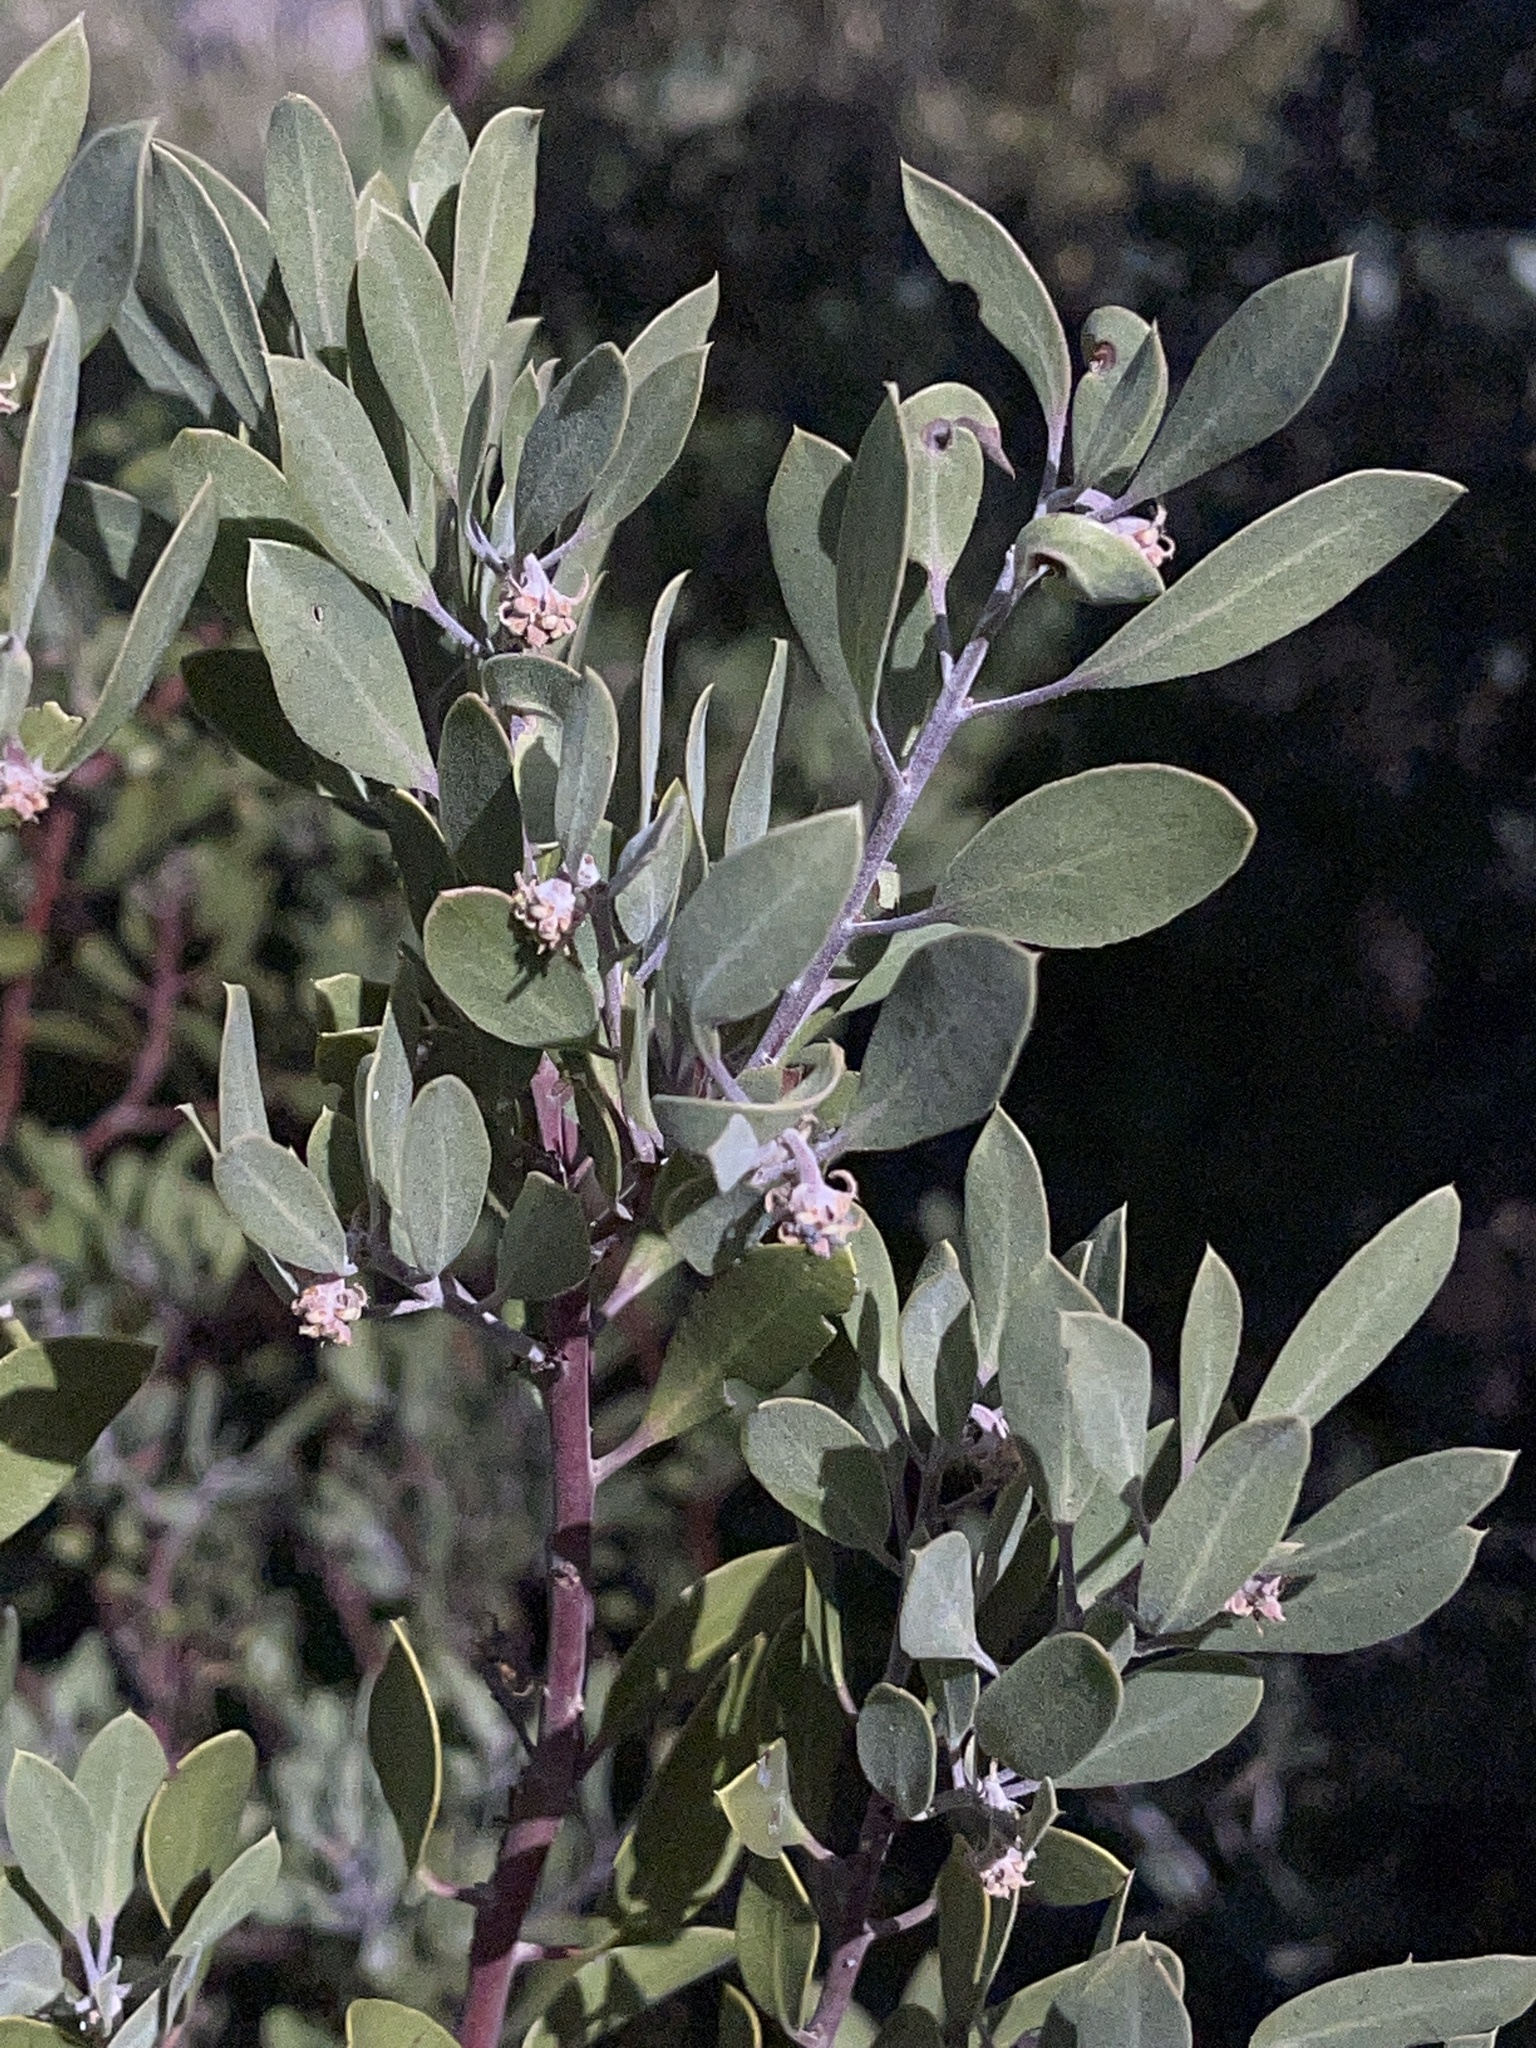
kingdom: Plantae
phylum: Tracheophyta
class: Magnoliopsida
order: Ericales
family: Ericaceae
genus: Arctostaphylos
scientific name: Arctostaphylos pungens
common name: Mexican manzanita
